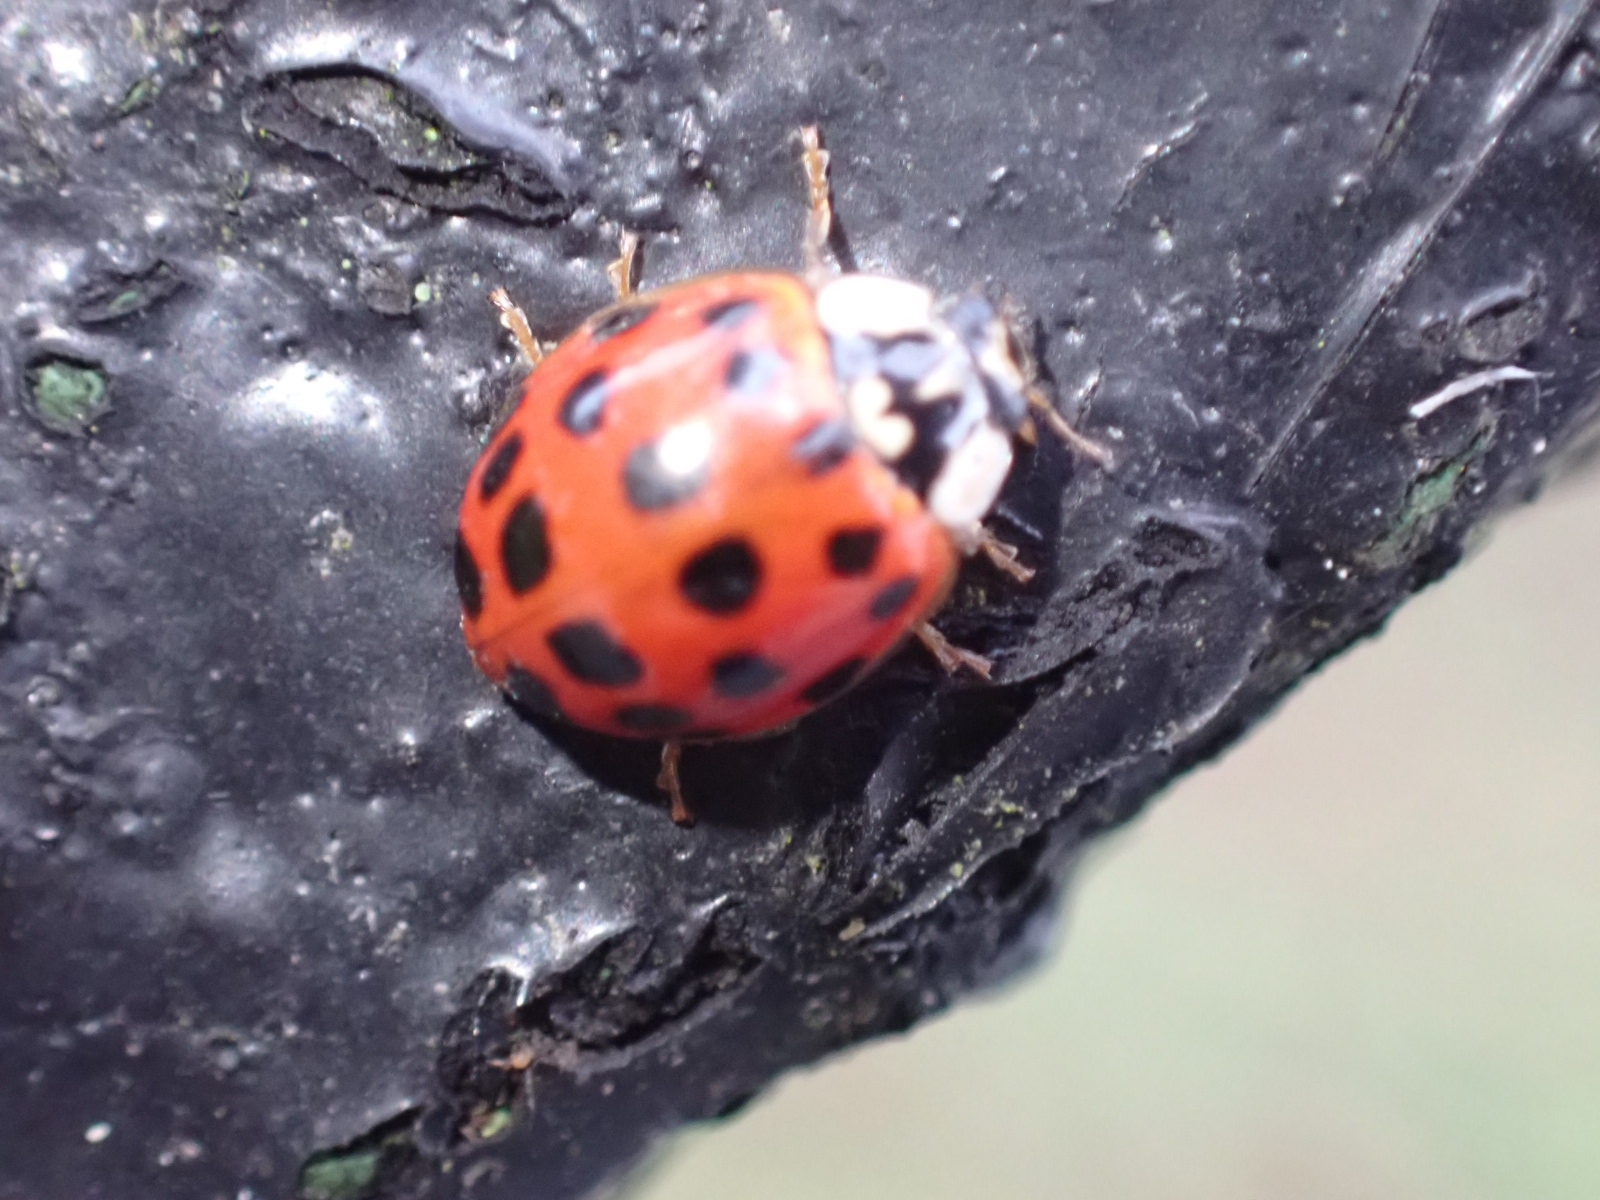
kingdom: Animalia
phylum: Arthropoda
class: Insecta
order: Coleoptera
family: Coccinellidae
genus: Harmonia
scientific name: Harmonia axyridis
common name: Harlequin ladybird
